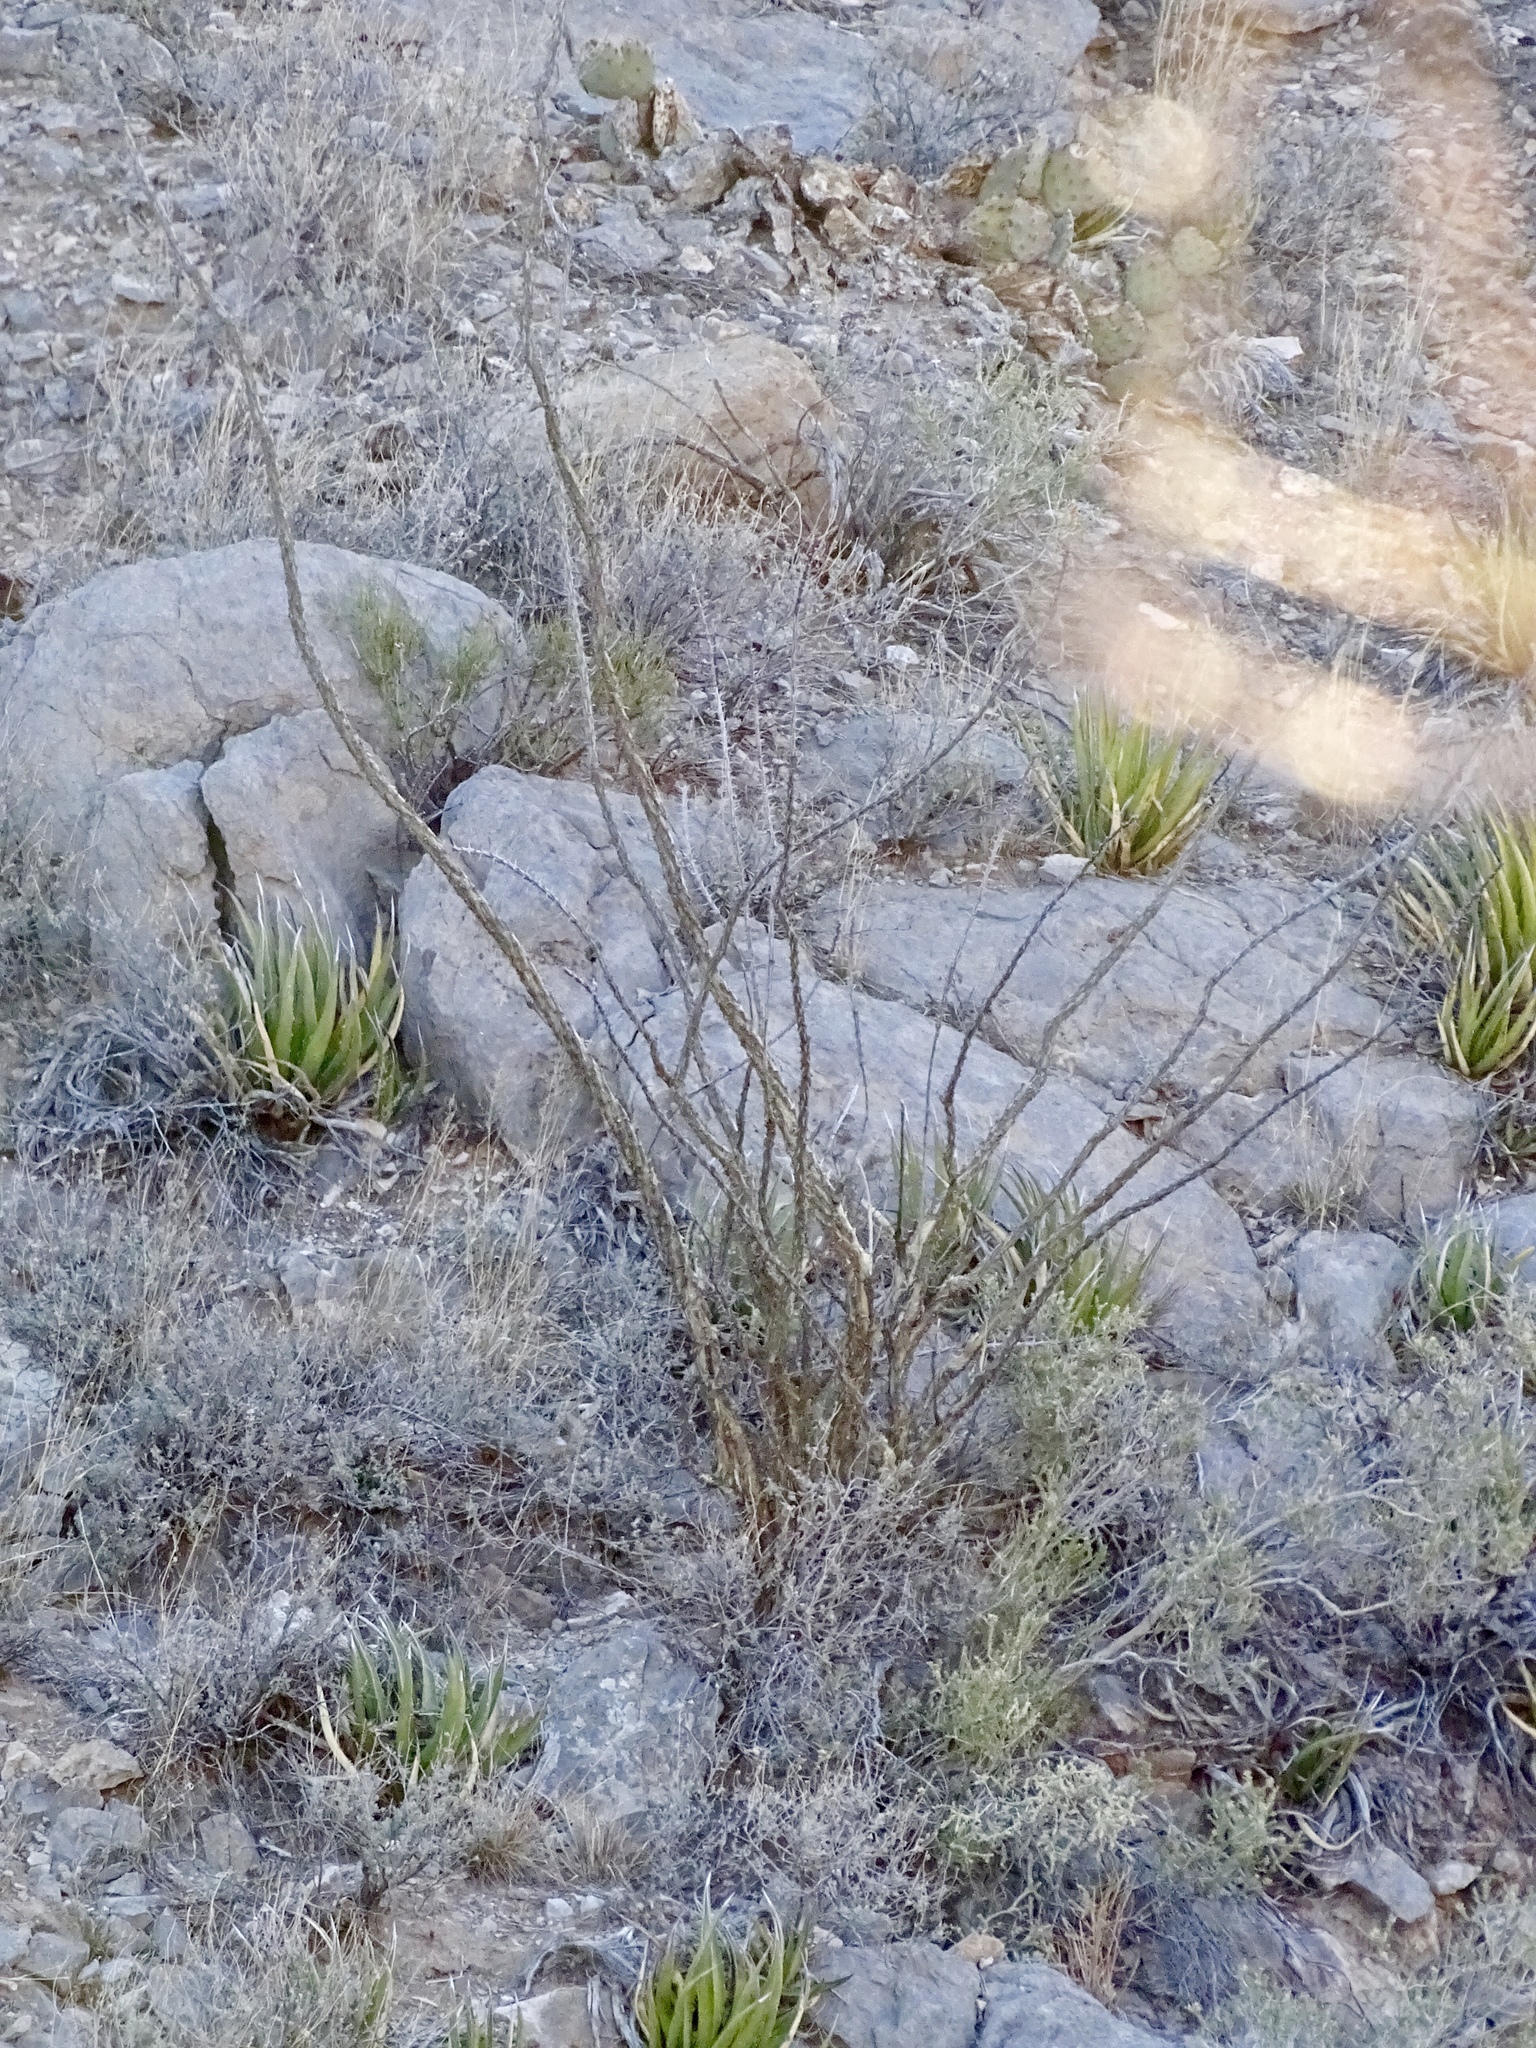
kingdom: Plantae
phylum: Tracheophyta
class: Magnoliopsida
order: Ericales
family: Fouquieriaceae
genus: Fouquieria
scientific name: Fouquieria splendens
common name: Vine-cactus
